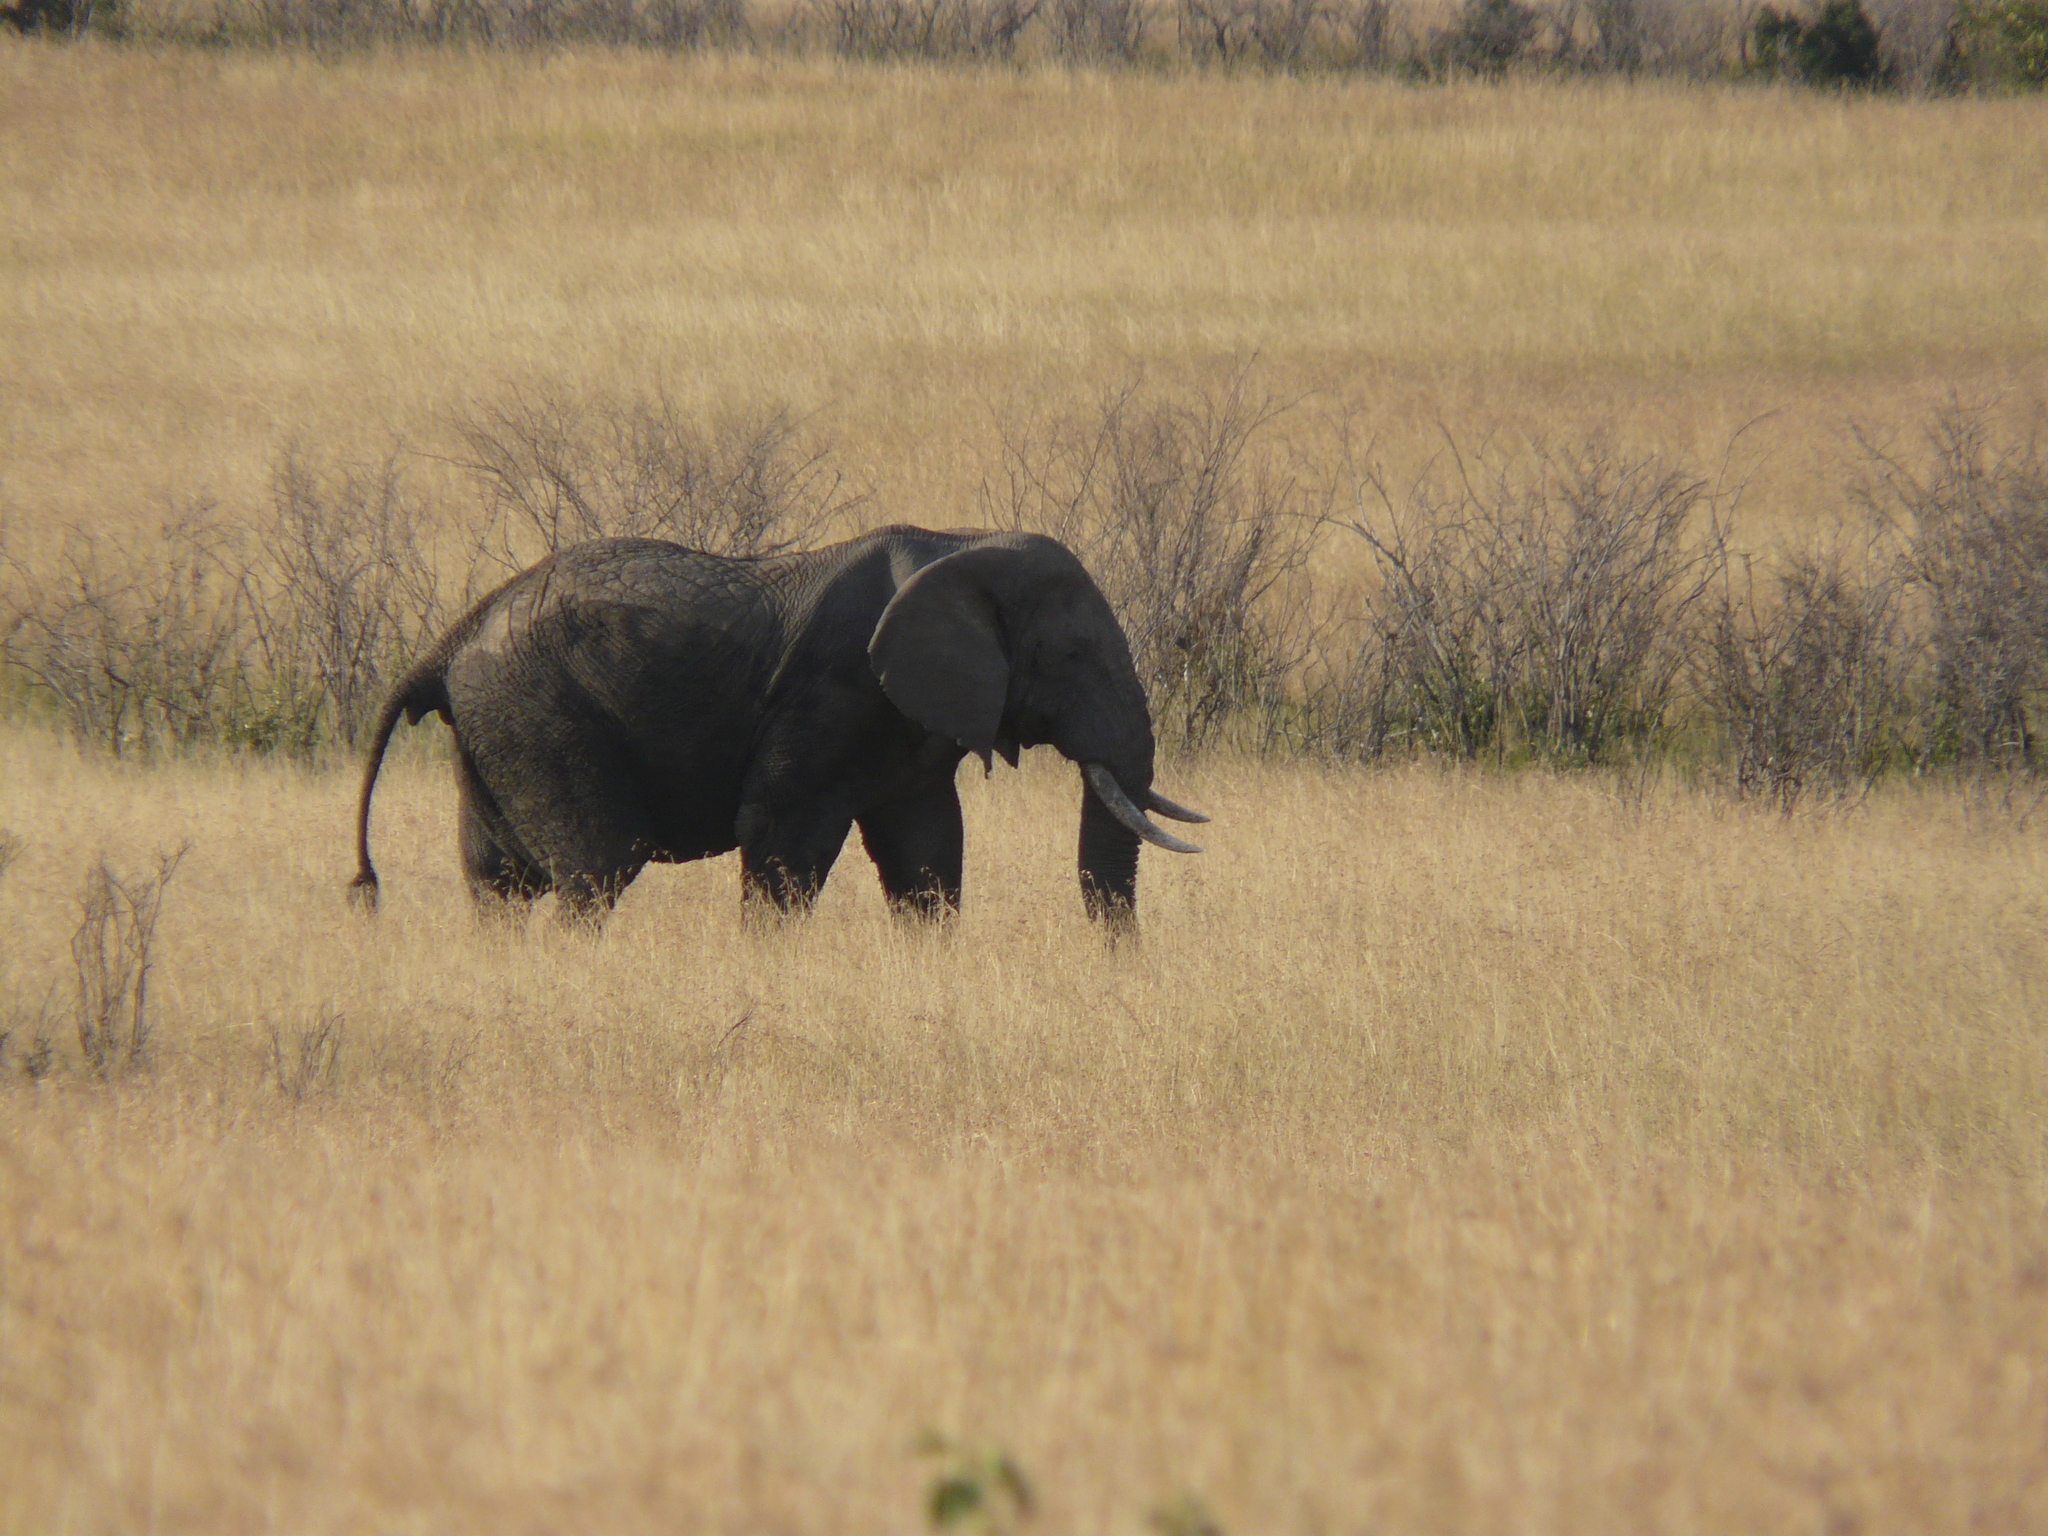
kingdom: Animalia
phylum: Chordata
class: Mammalia
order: Proboscidea
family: Elephantidae
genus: Loxodonta
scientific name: Loxodonta africana
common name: African elephant
